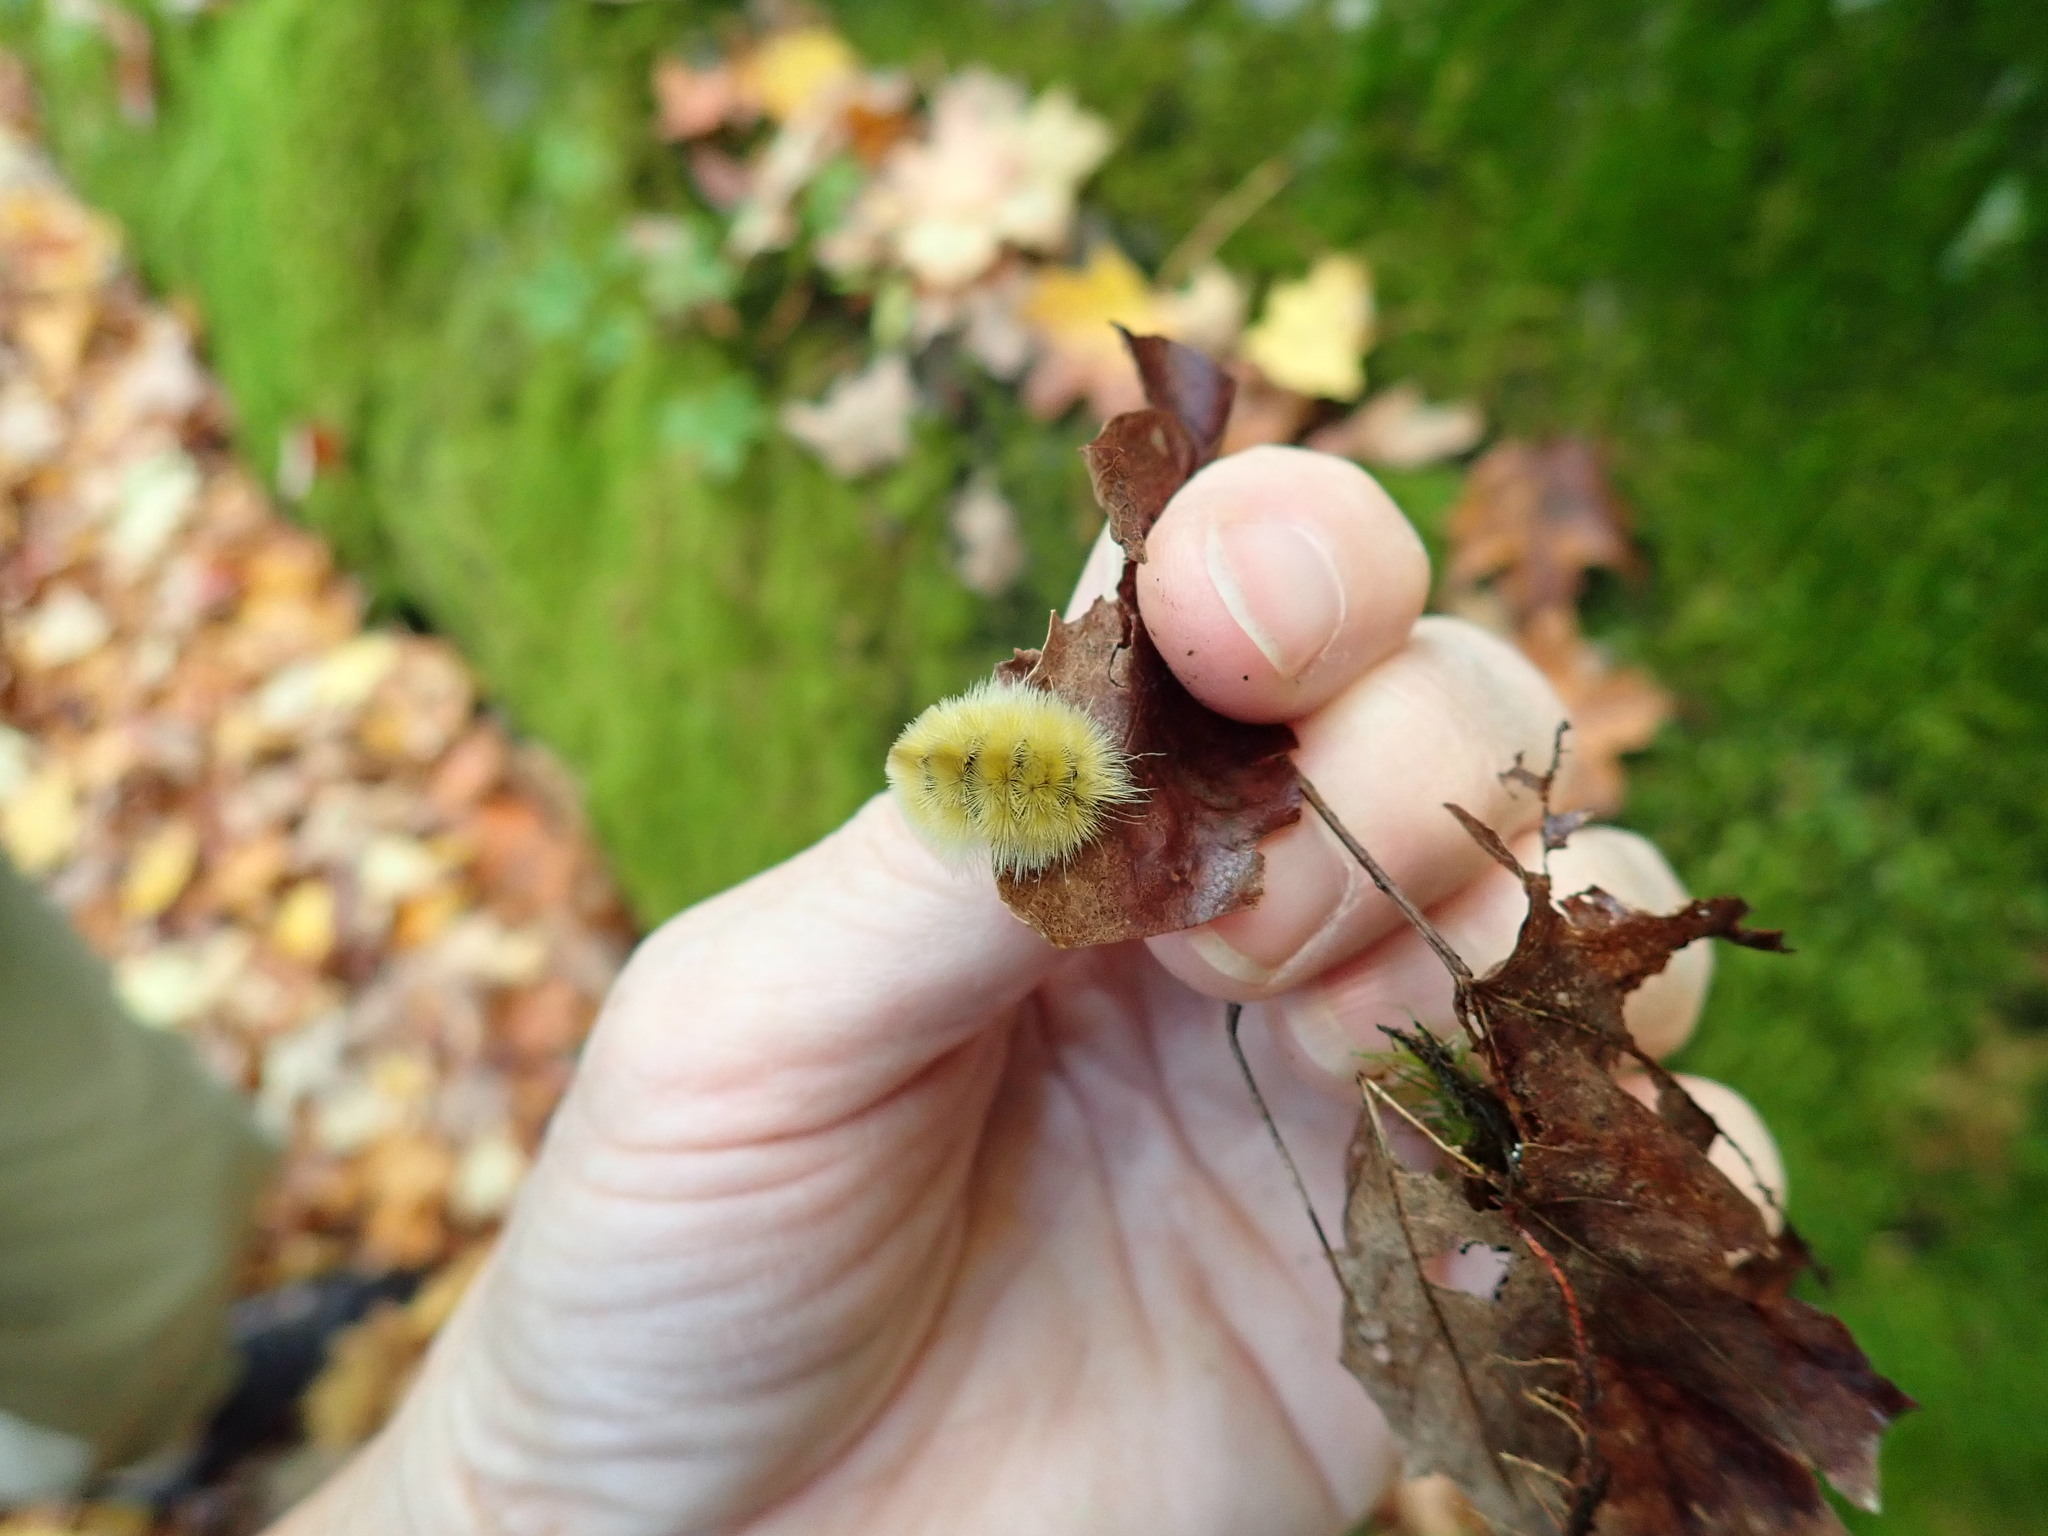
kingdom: Animalia
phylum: Arthropoda
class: Insecta
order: Lepidoptera
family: Erebidae
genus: Halysidota
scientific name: Halysidota tessellaris
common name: Banded tussock moth
